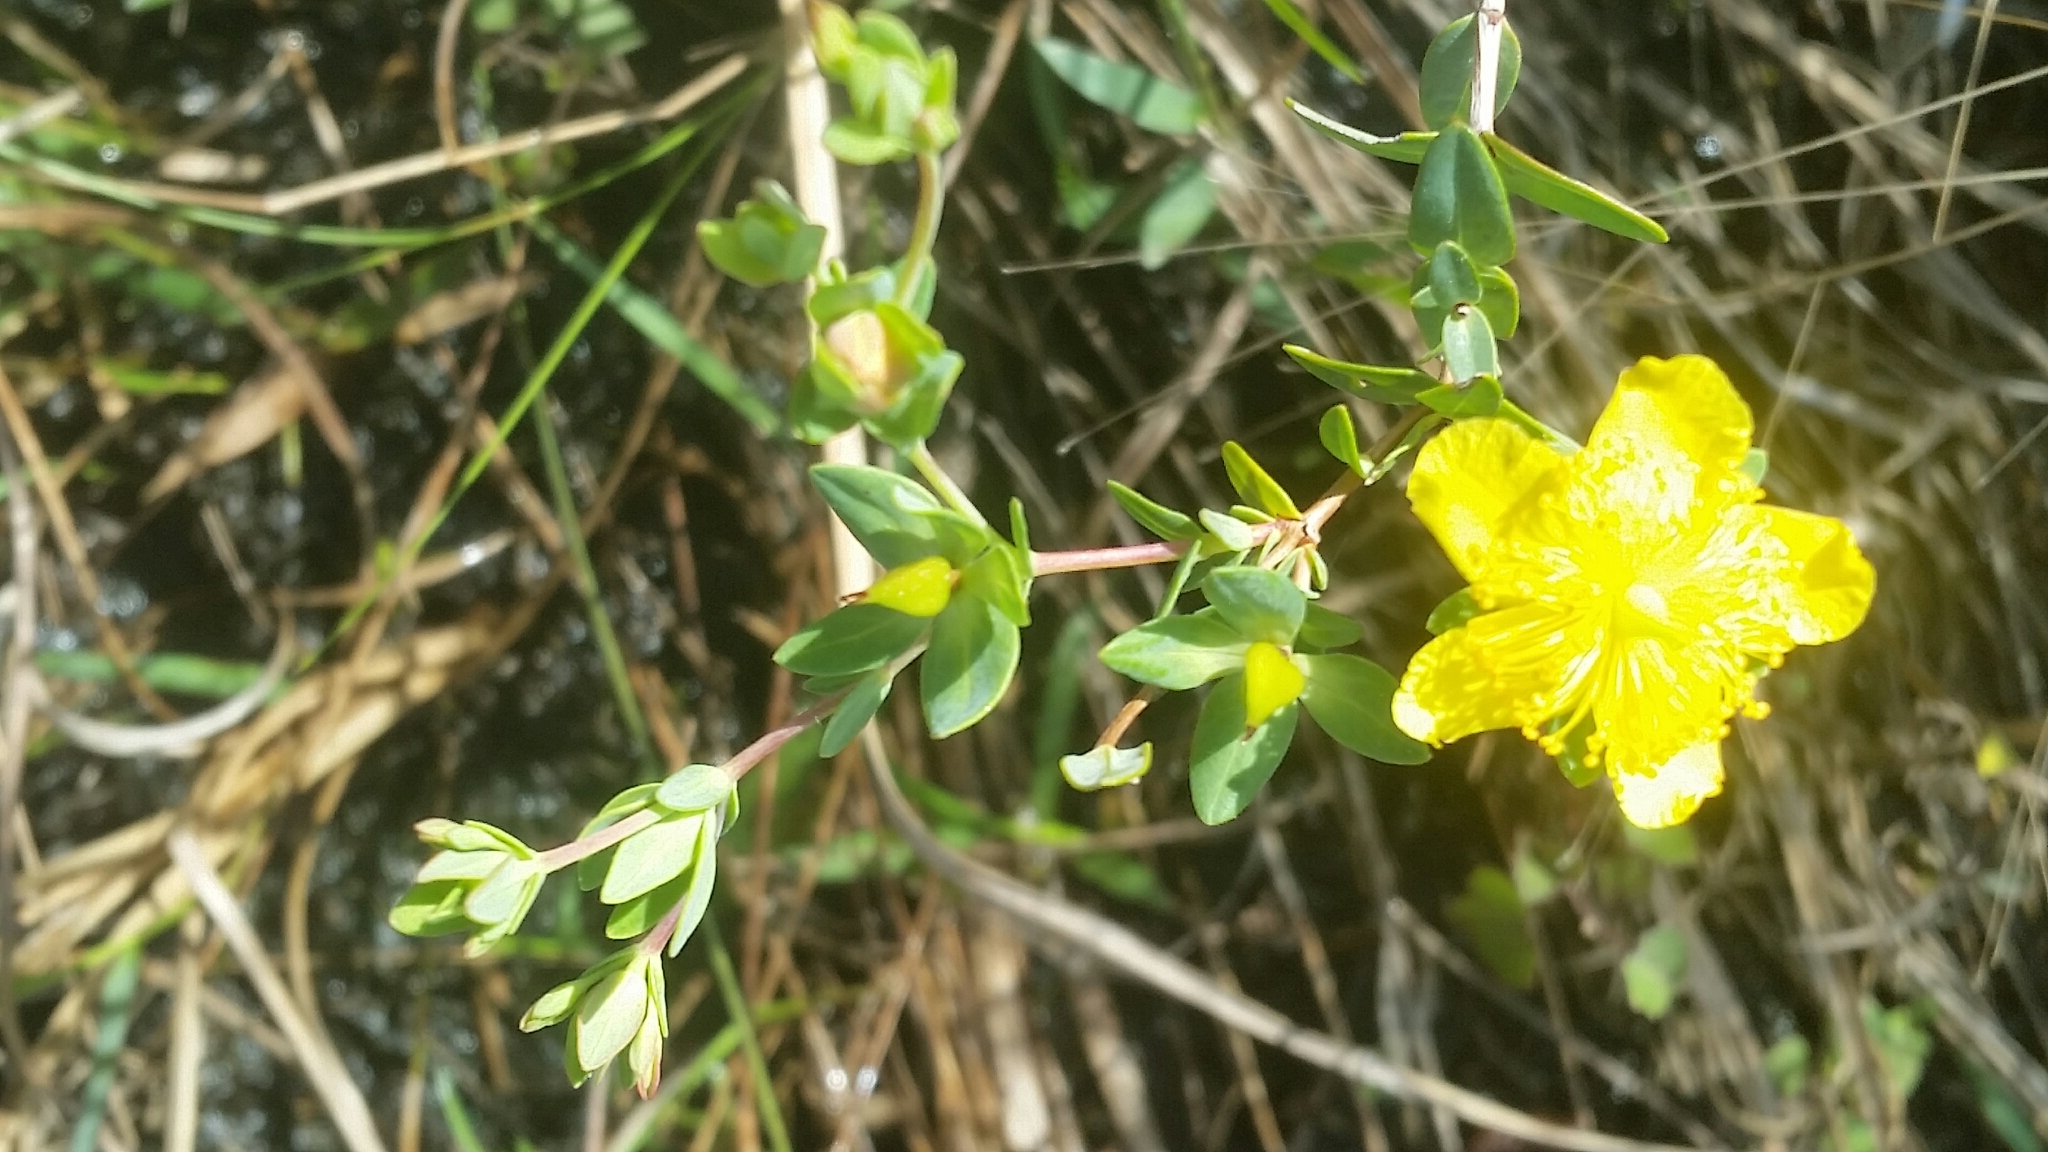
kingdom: Plantae
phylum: Tracheophyta
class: Magnoliopsida
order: Malpighiales
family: Hypericaceae
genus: Hypericum
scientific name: Hypericum myrtifolium
